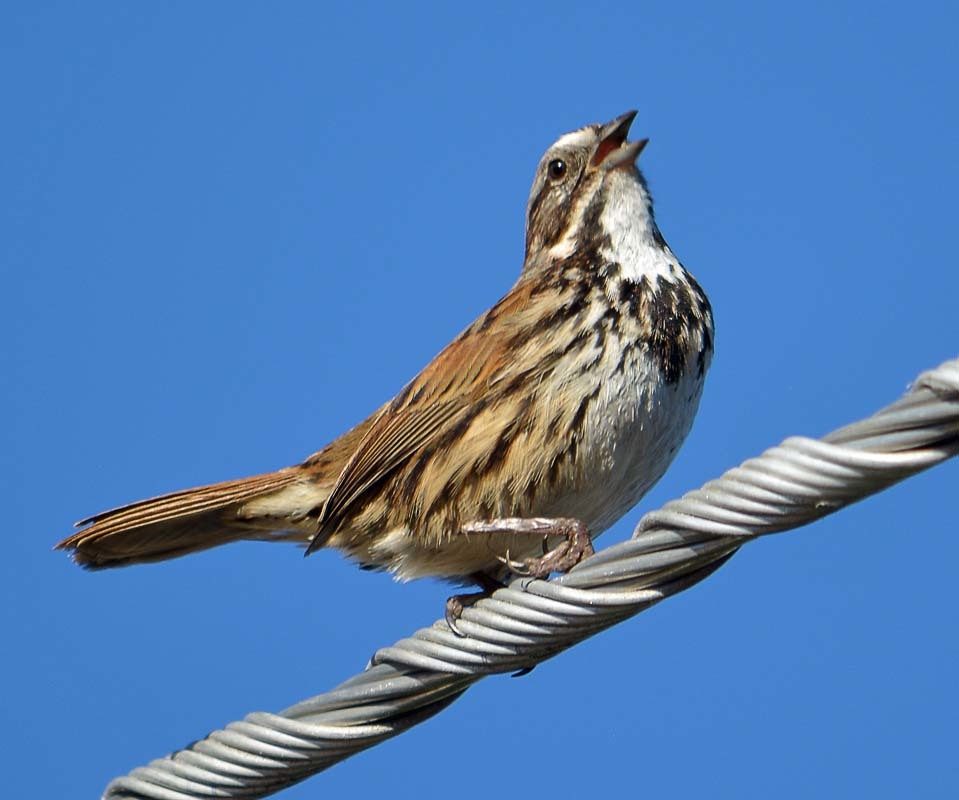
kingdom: Animalia
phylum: Chordata
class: Aves
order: Passeriformes
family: Passerellidae
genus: Melospiza
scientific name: Melospiza melodia
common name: Song sparrow
